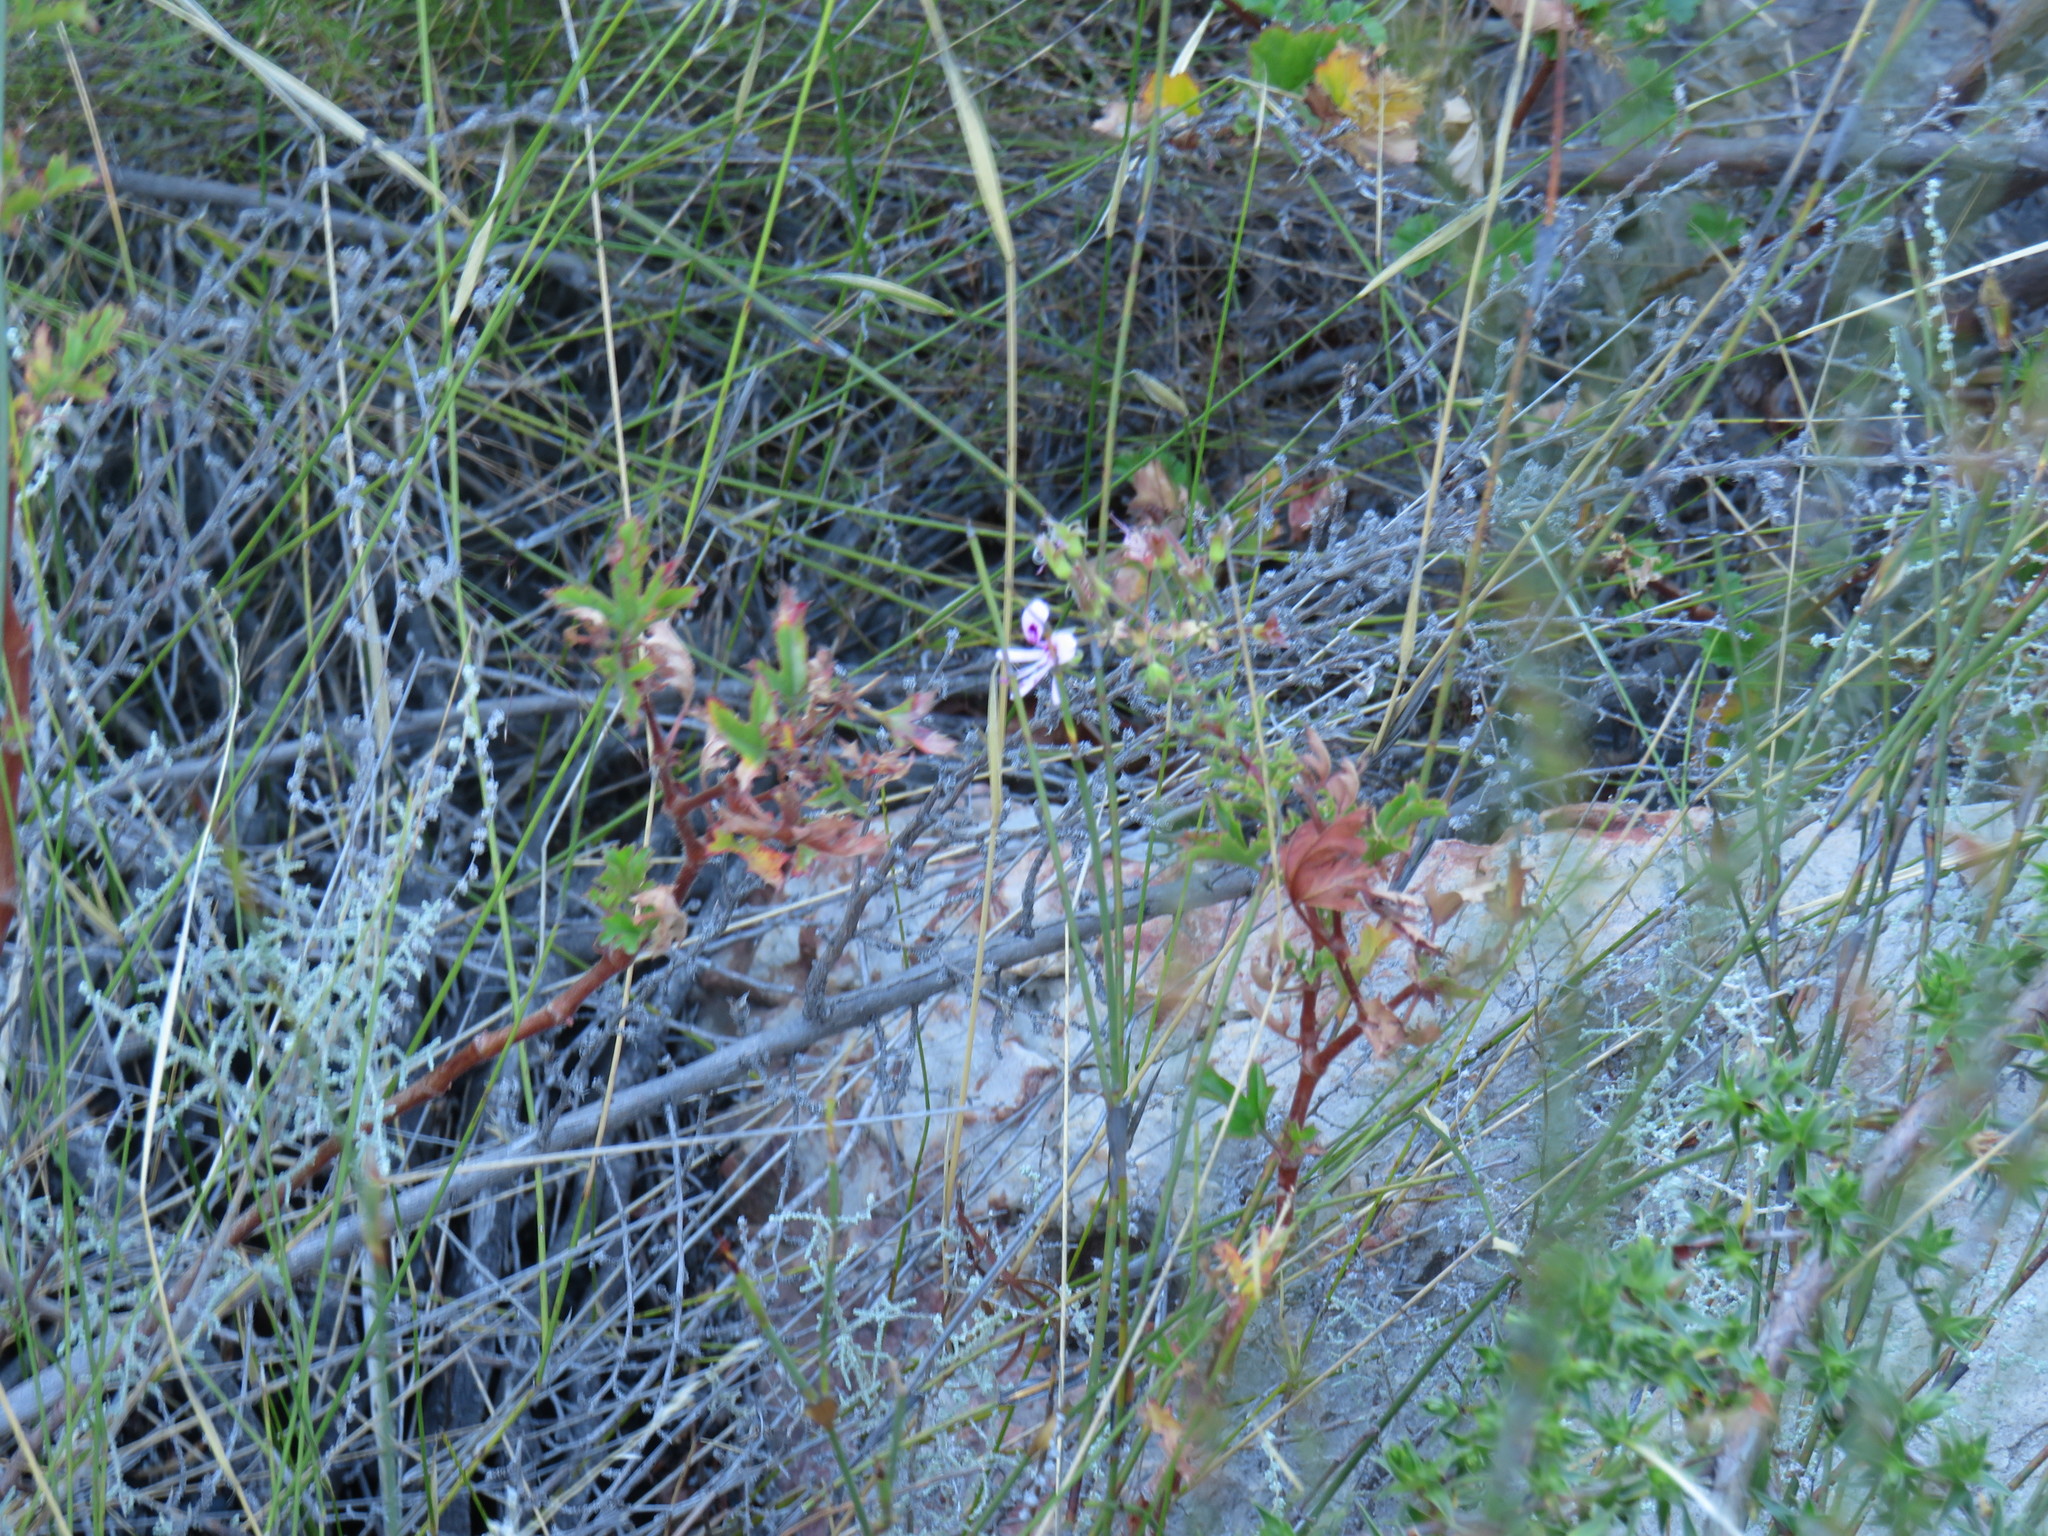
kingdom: Plantae
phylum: Tracheophyta
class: Magnoliopsida
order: Geraniales
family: Geraniaceae
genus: Pelargonium
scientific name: Pelargonium sublignosum
